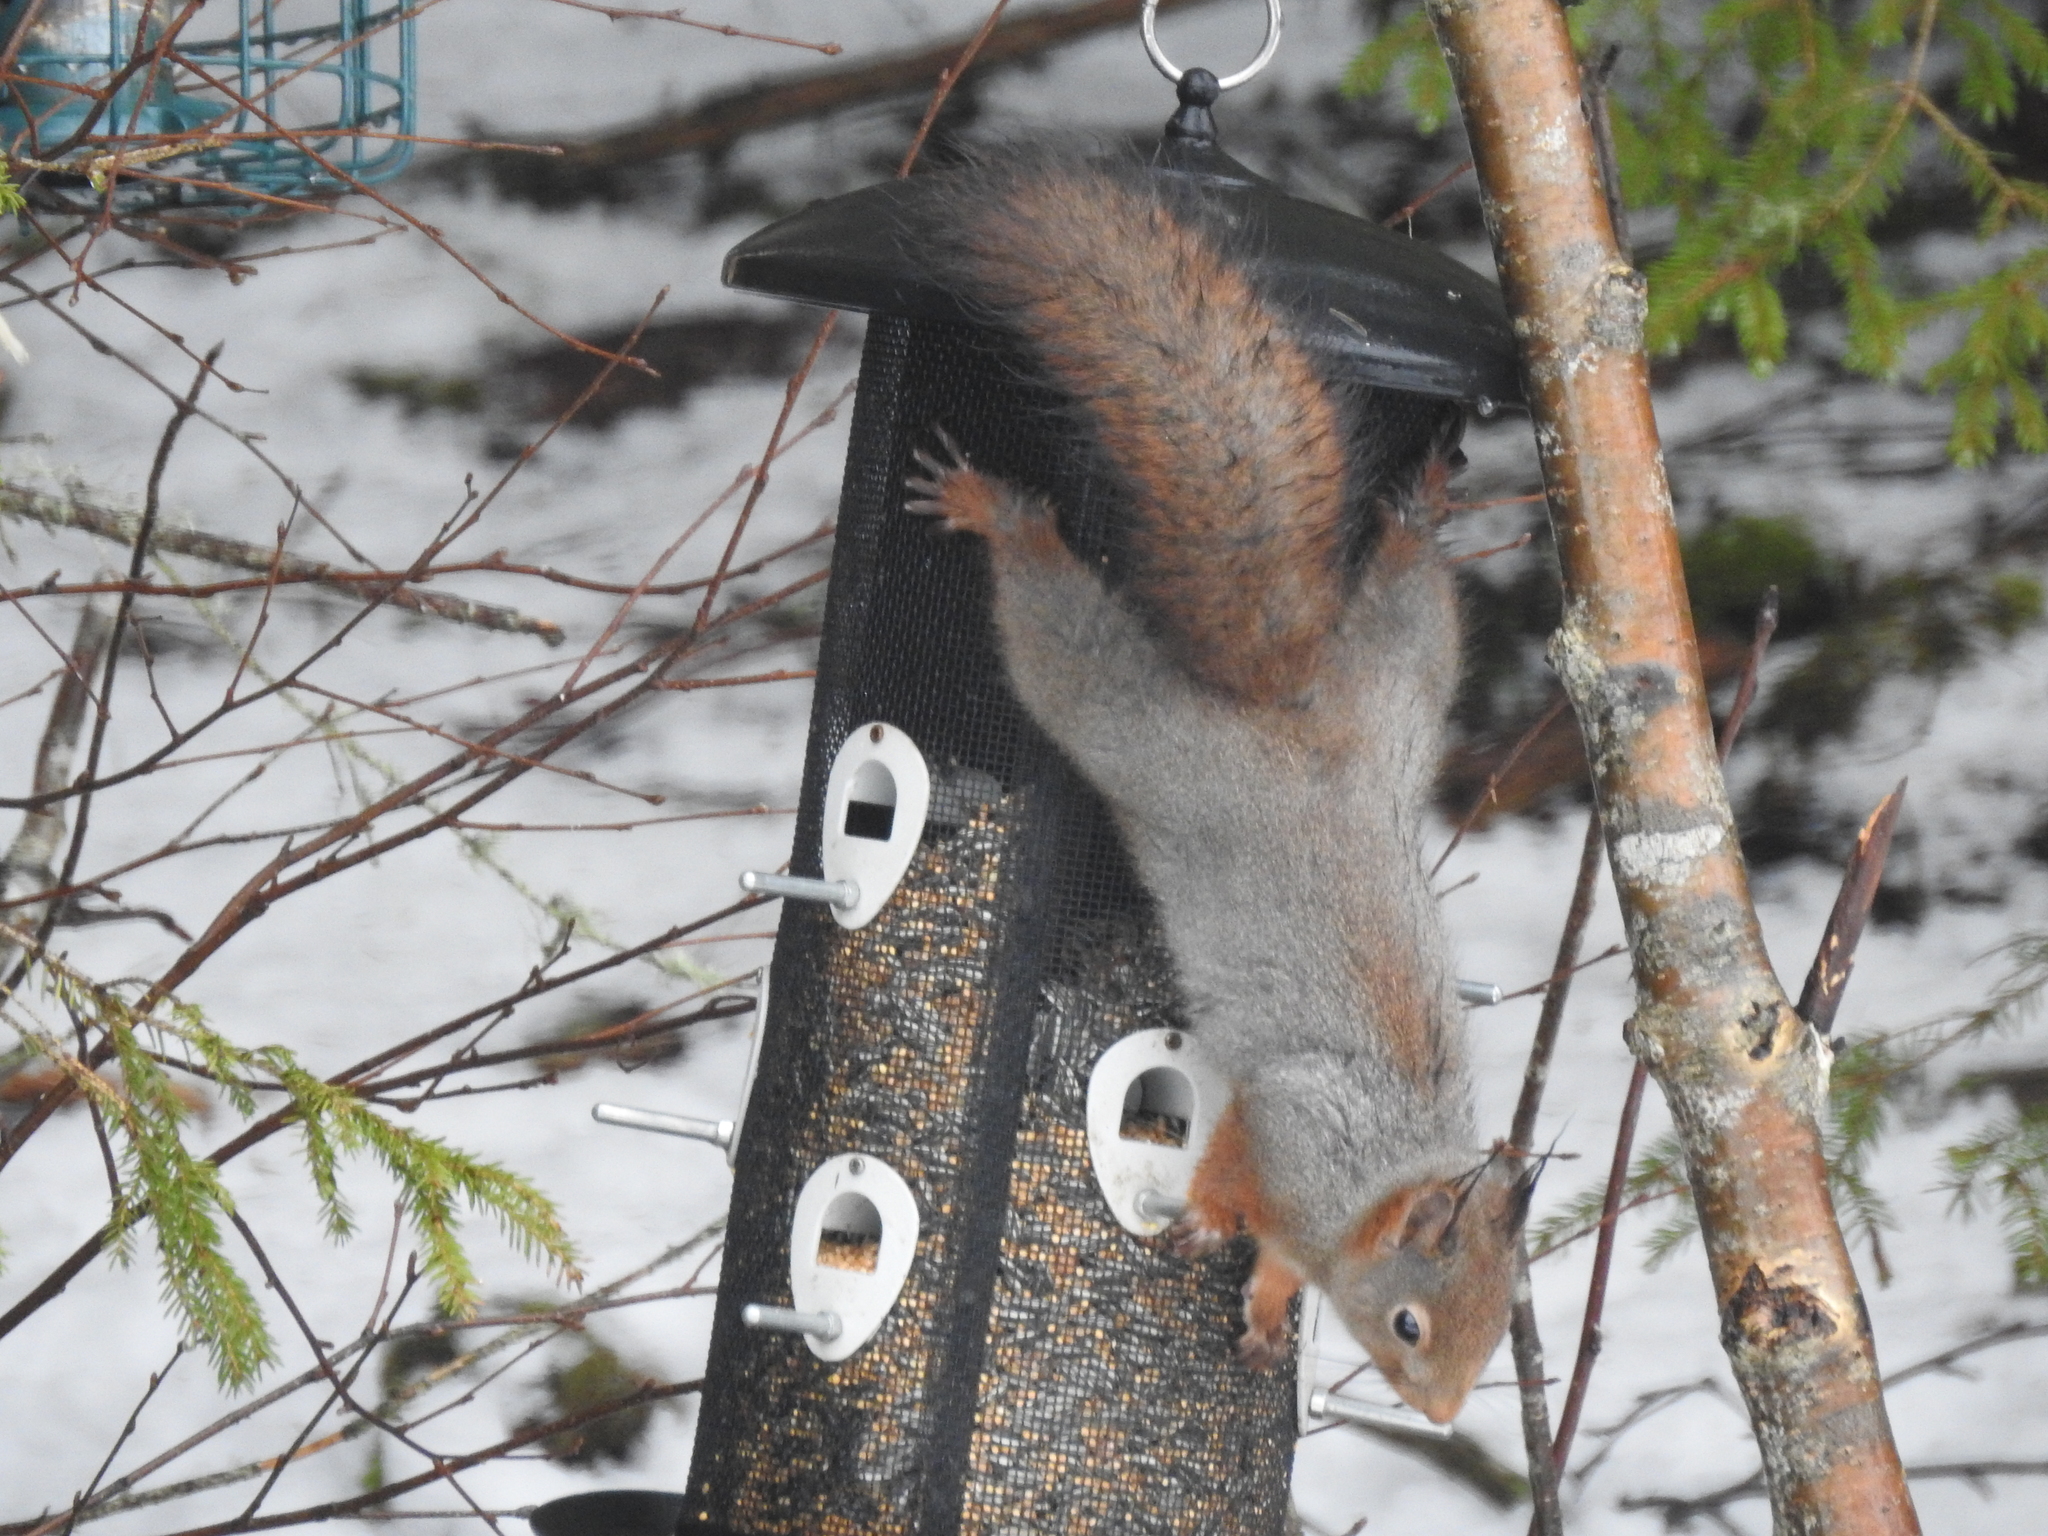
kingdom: Animalia
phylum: Chordata
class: Mammalia
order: Rodentia
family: Sciuridae
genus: Sciurus
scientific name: Sciurus vulgaris
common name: Eurasian red squirrel
